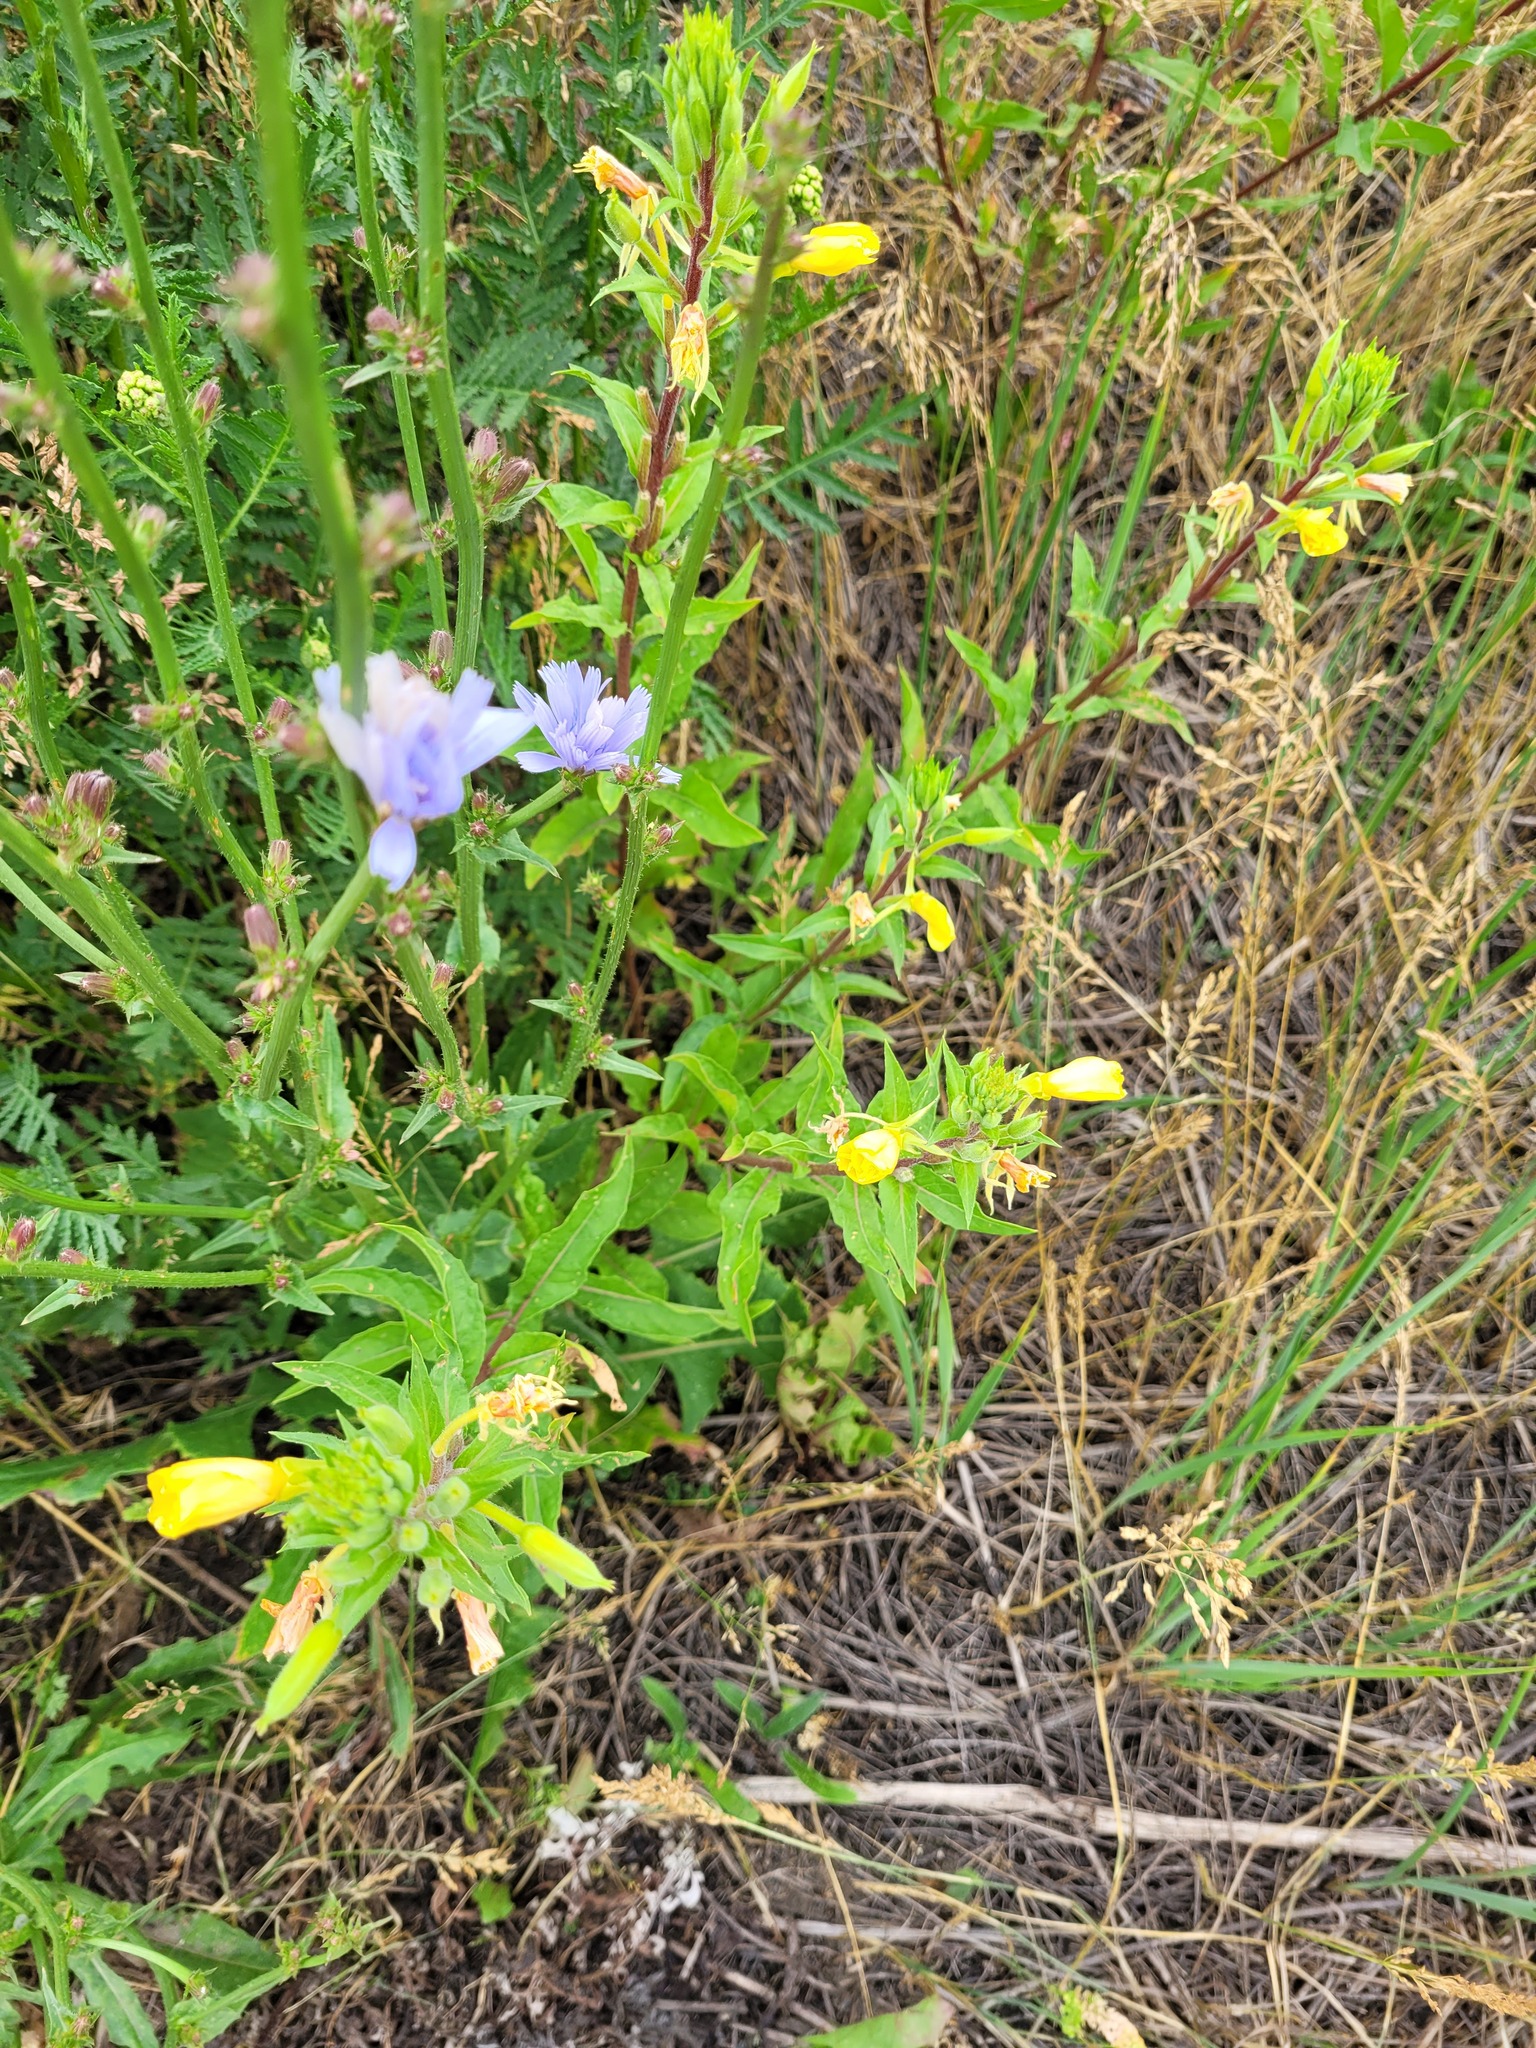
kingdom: Plantae
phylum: Tracheophyta
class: Magnoliopsida
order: Myrtales
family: Onagraceae
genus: Oenothera
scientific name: Oenothera rubricaulis
